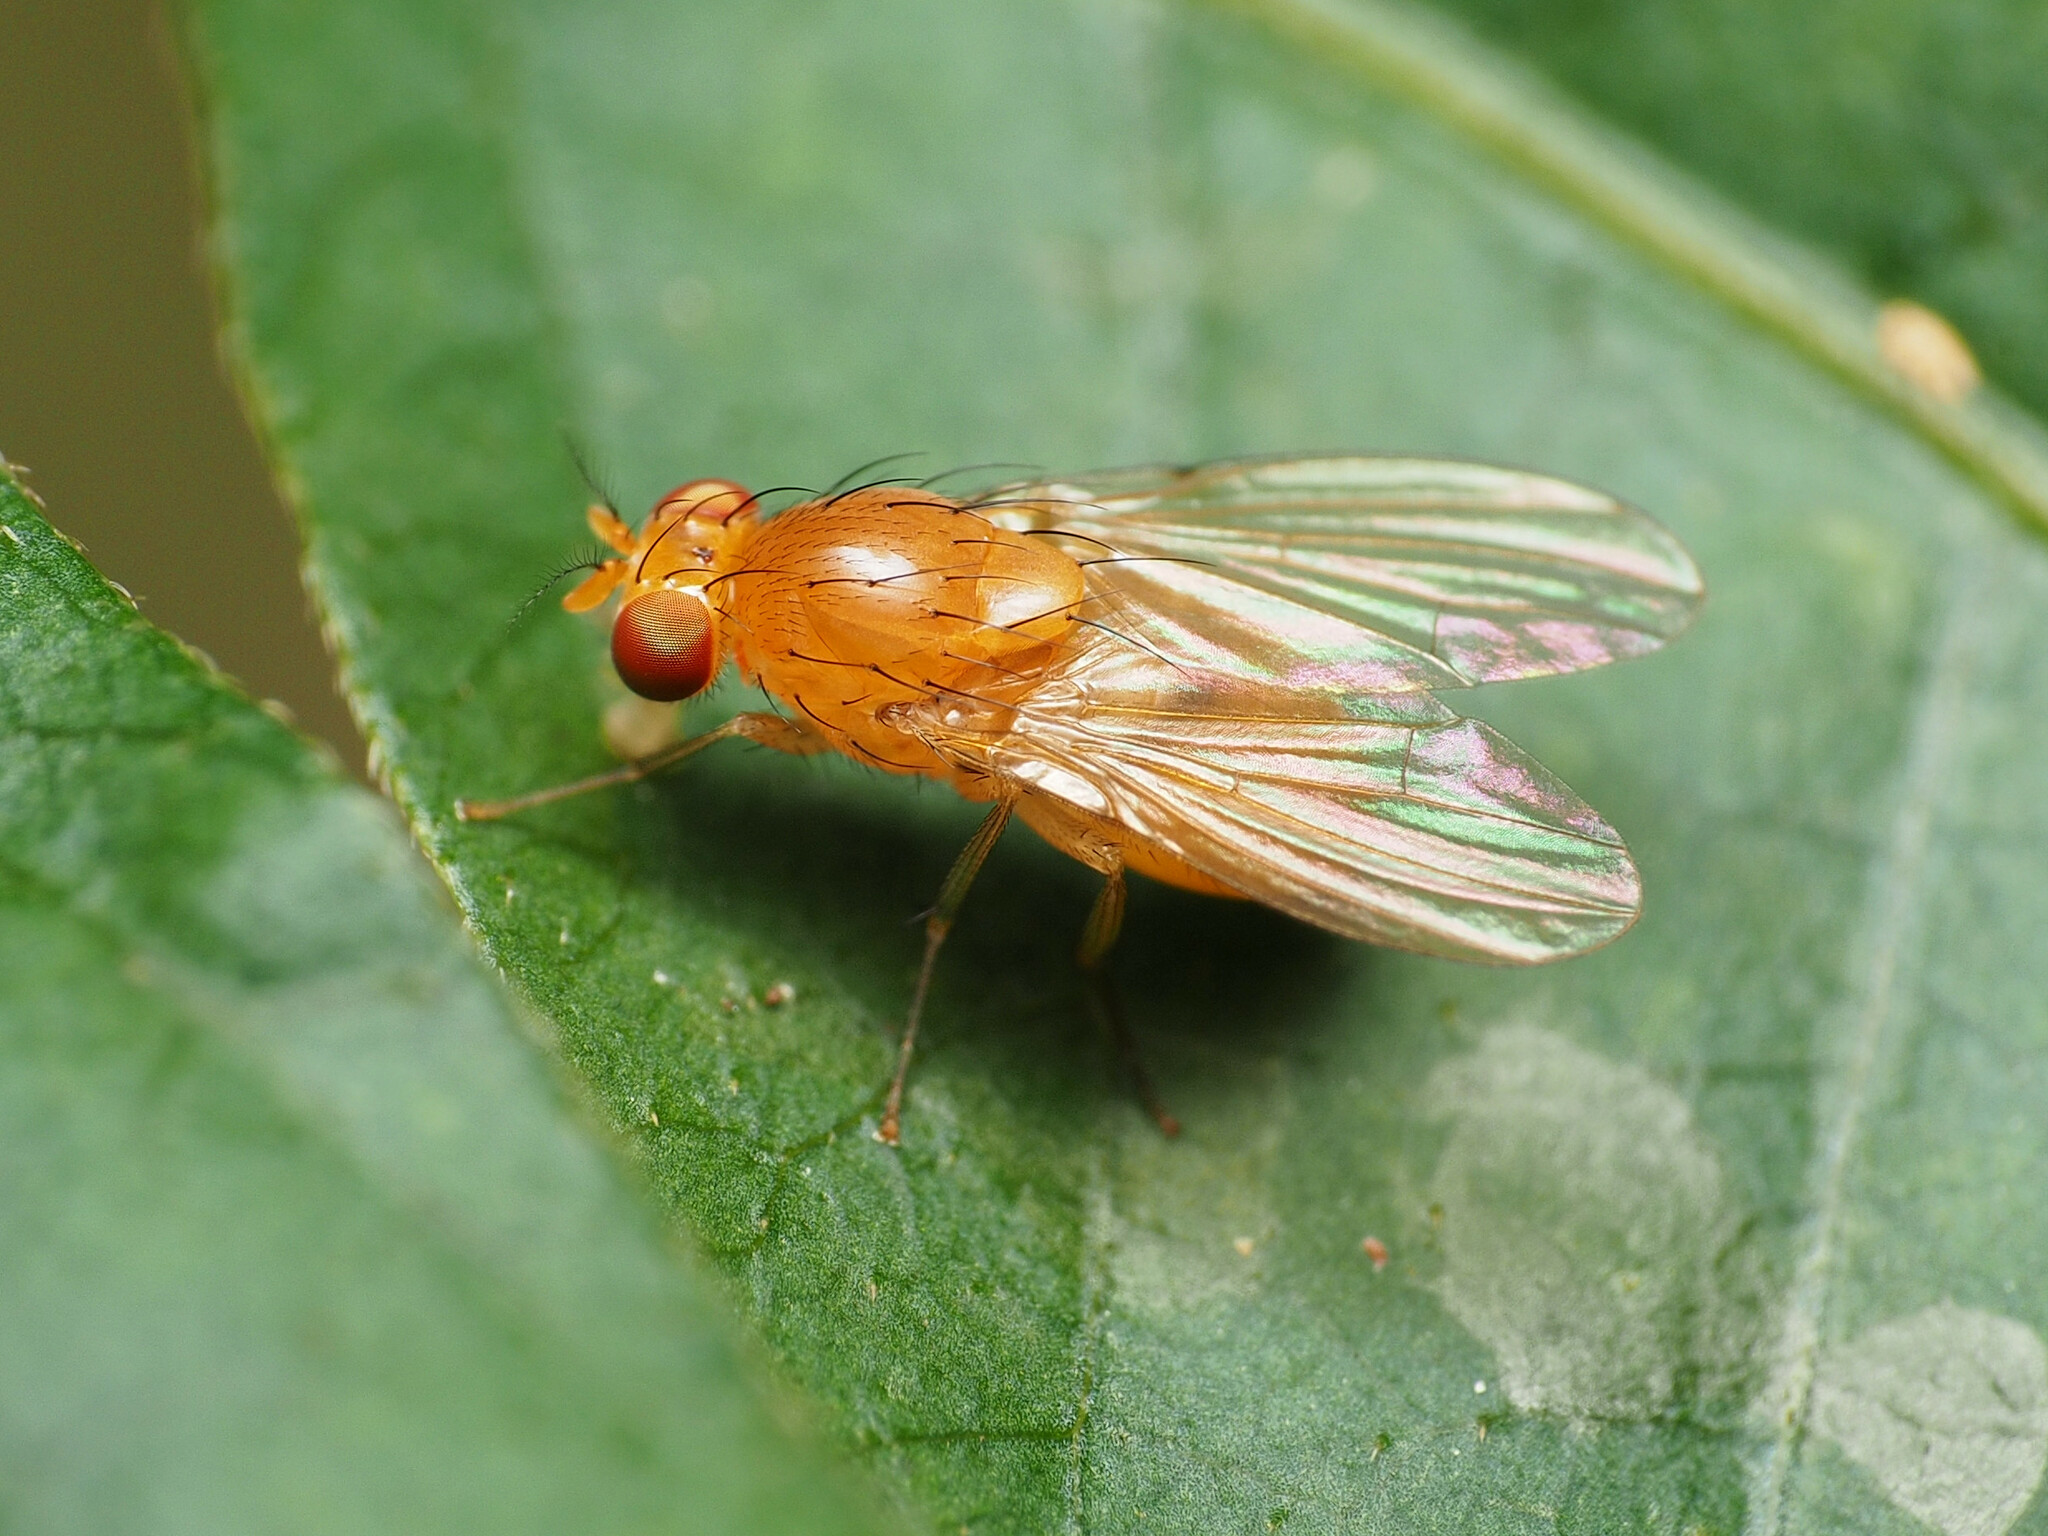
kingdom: Animalia
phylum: Arthropoda
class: Insecta
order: Diptera
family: Lauxaniidae
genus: Neogriphoneura
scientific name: Neogriphoneura sordida
